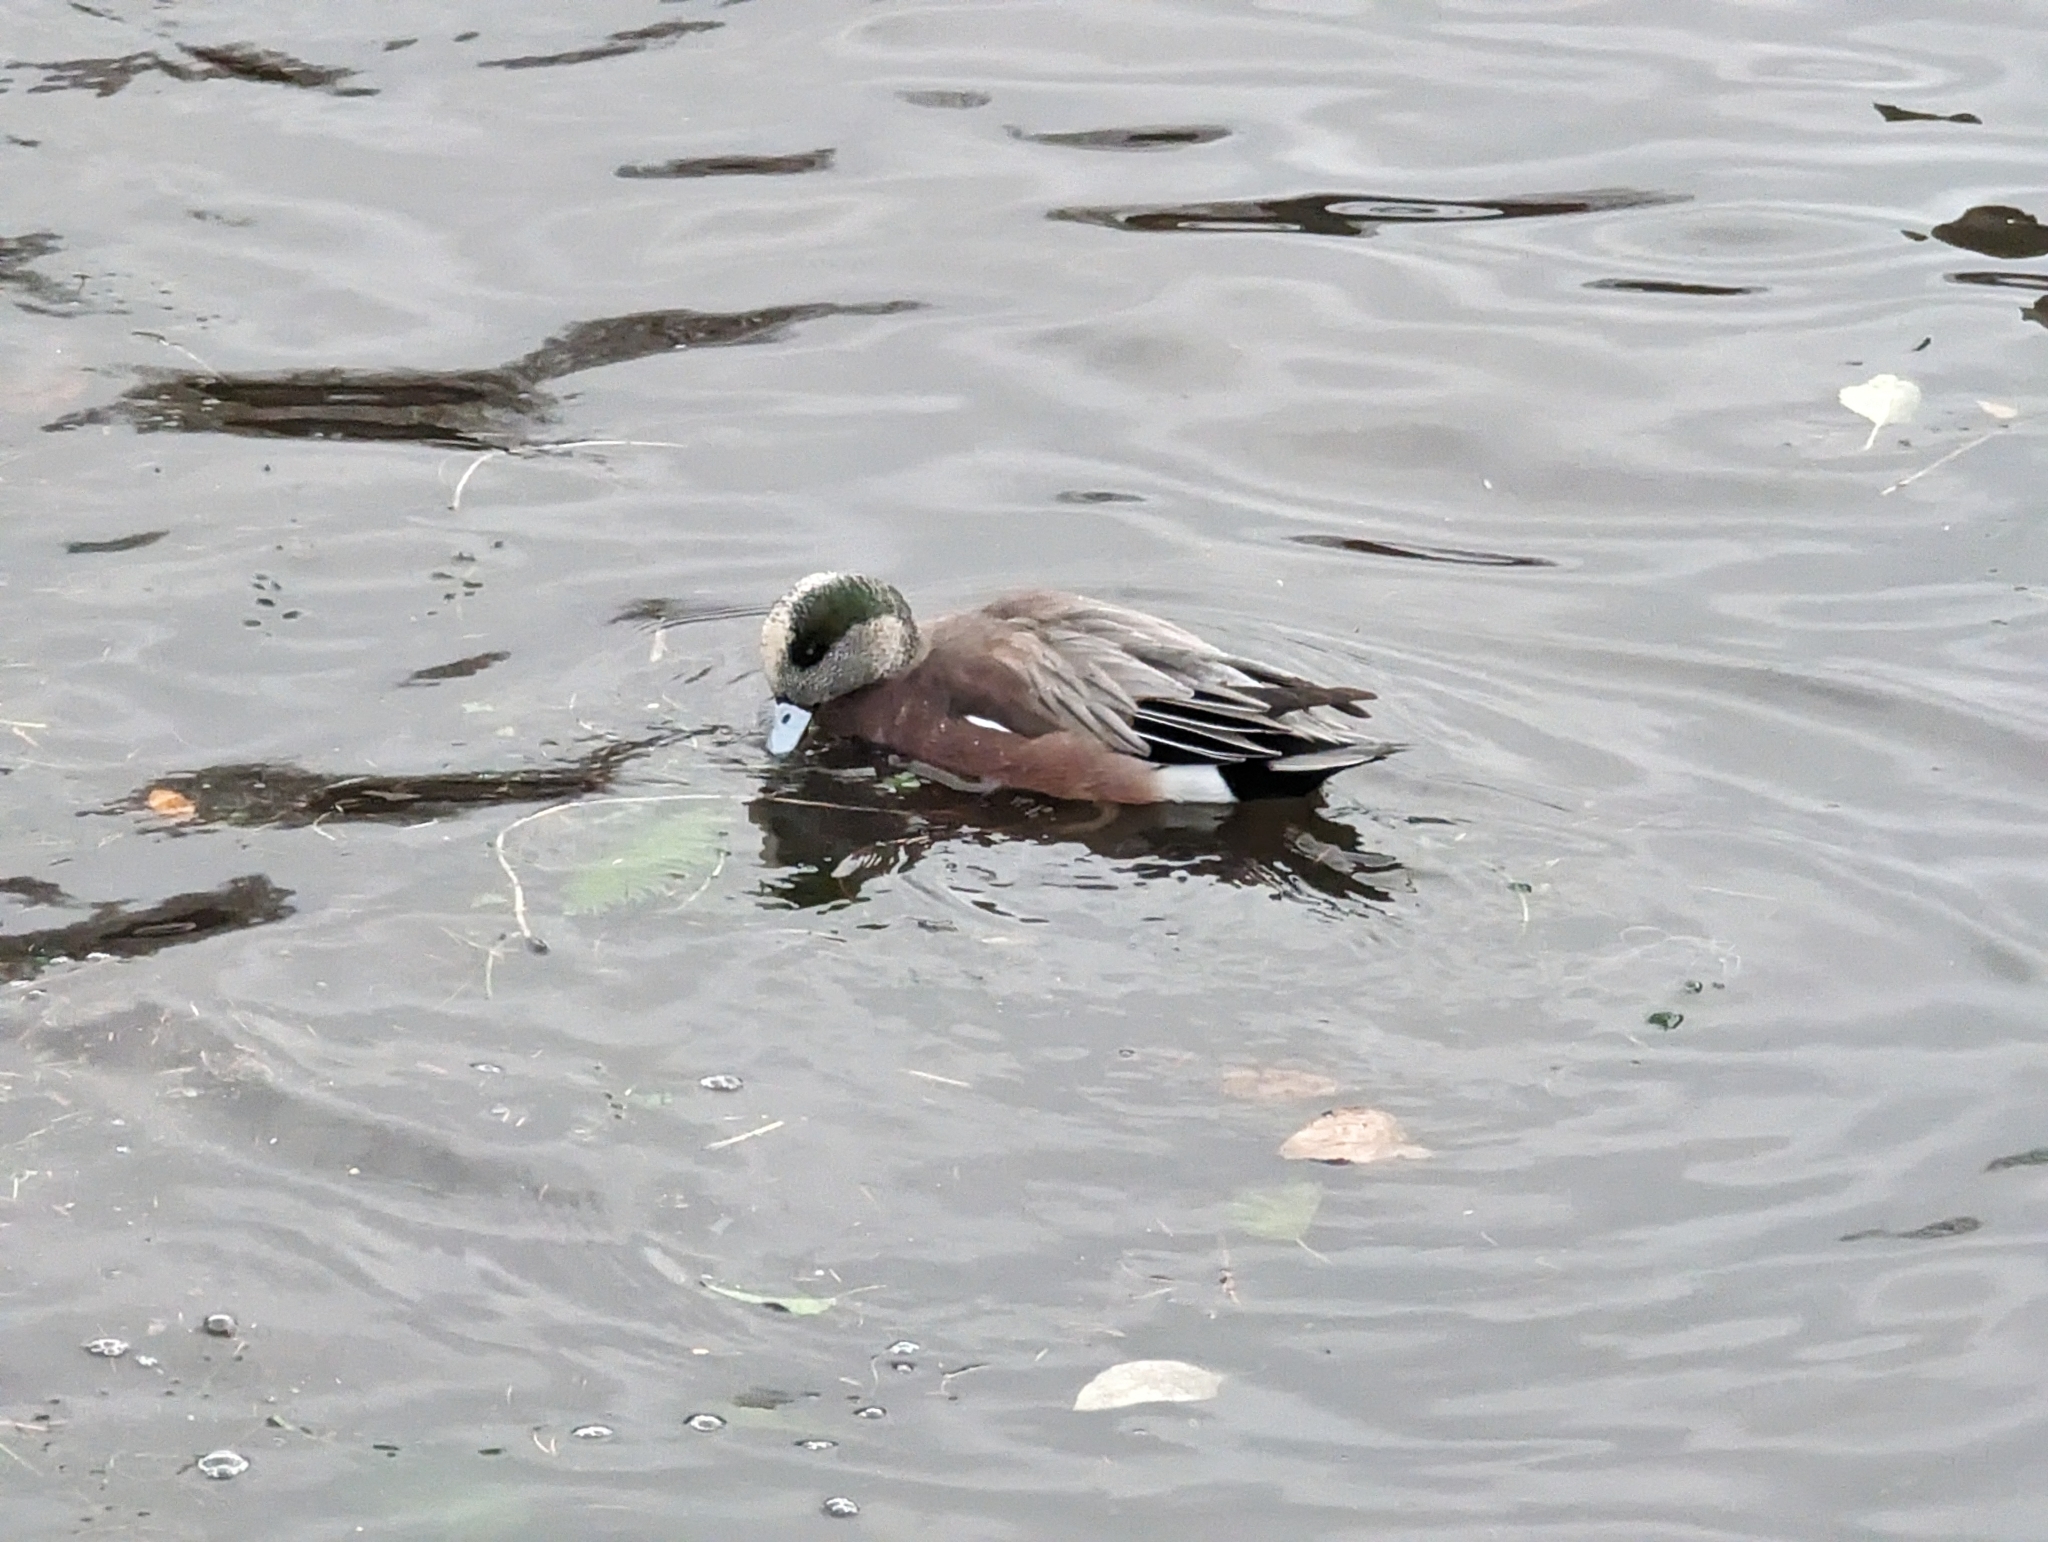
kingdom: Animalia
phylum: Chordata
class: Aves
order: Anseriformes
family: Anatidae
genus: Mareca
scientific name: Mareca americana
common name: American wigeon
